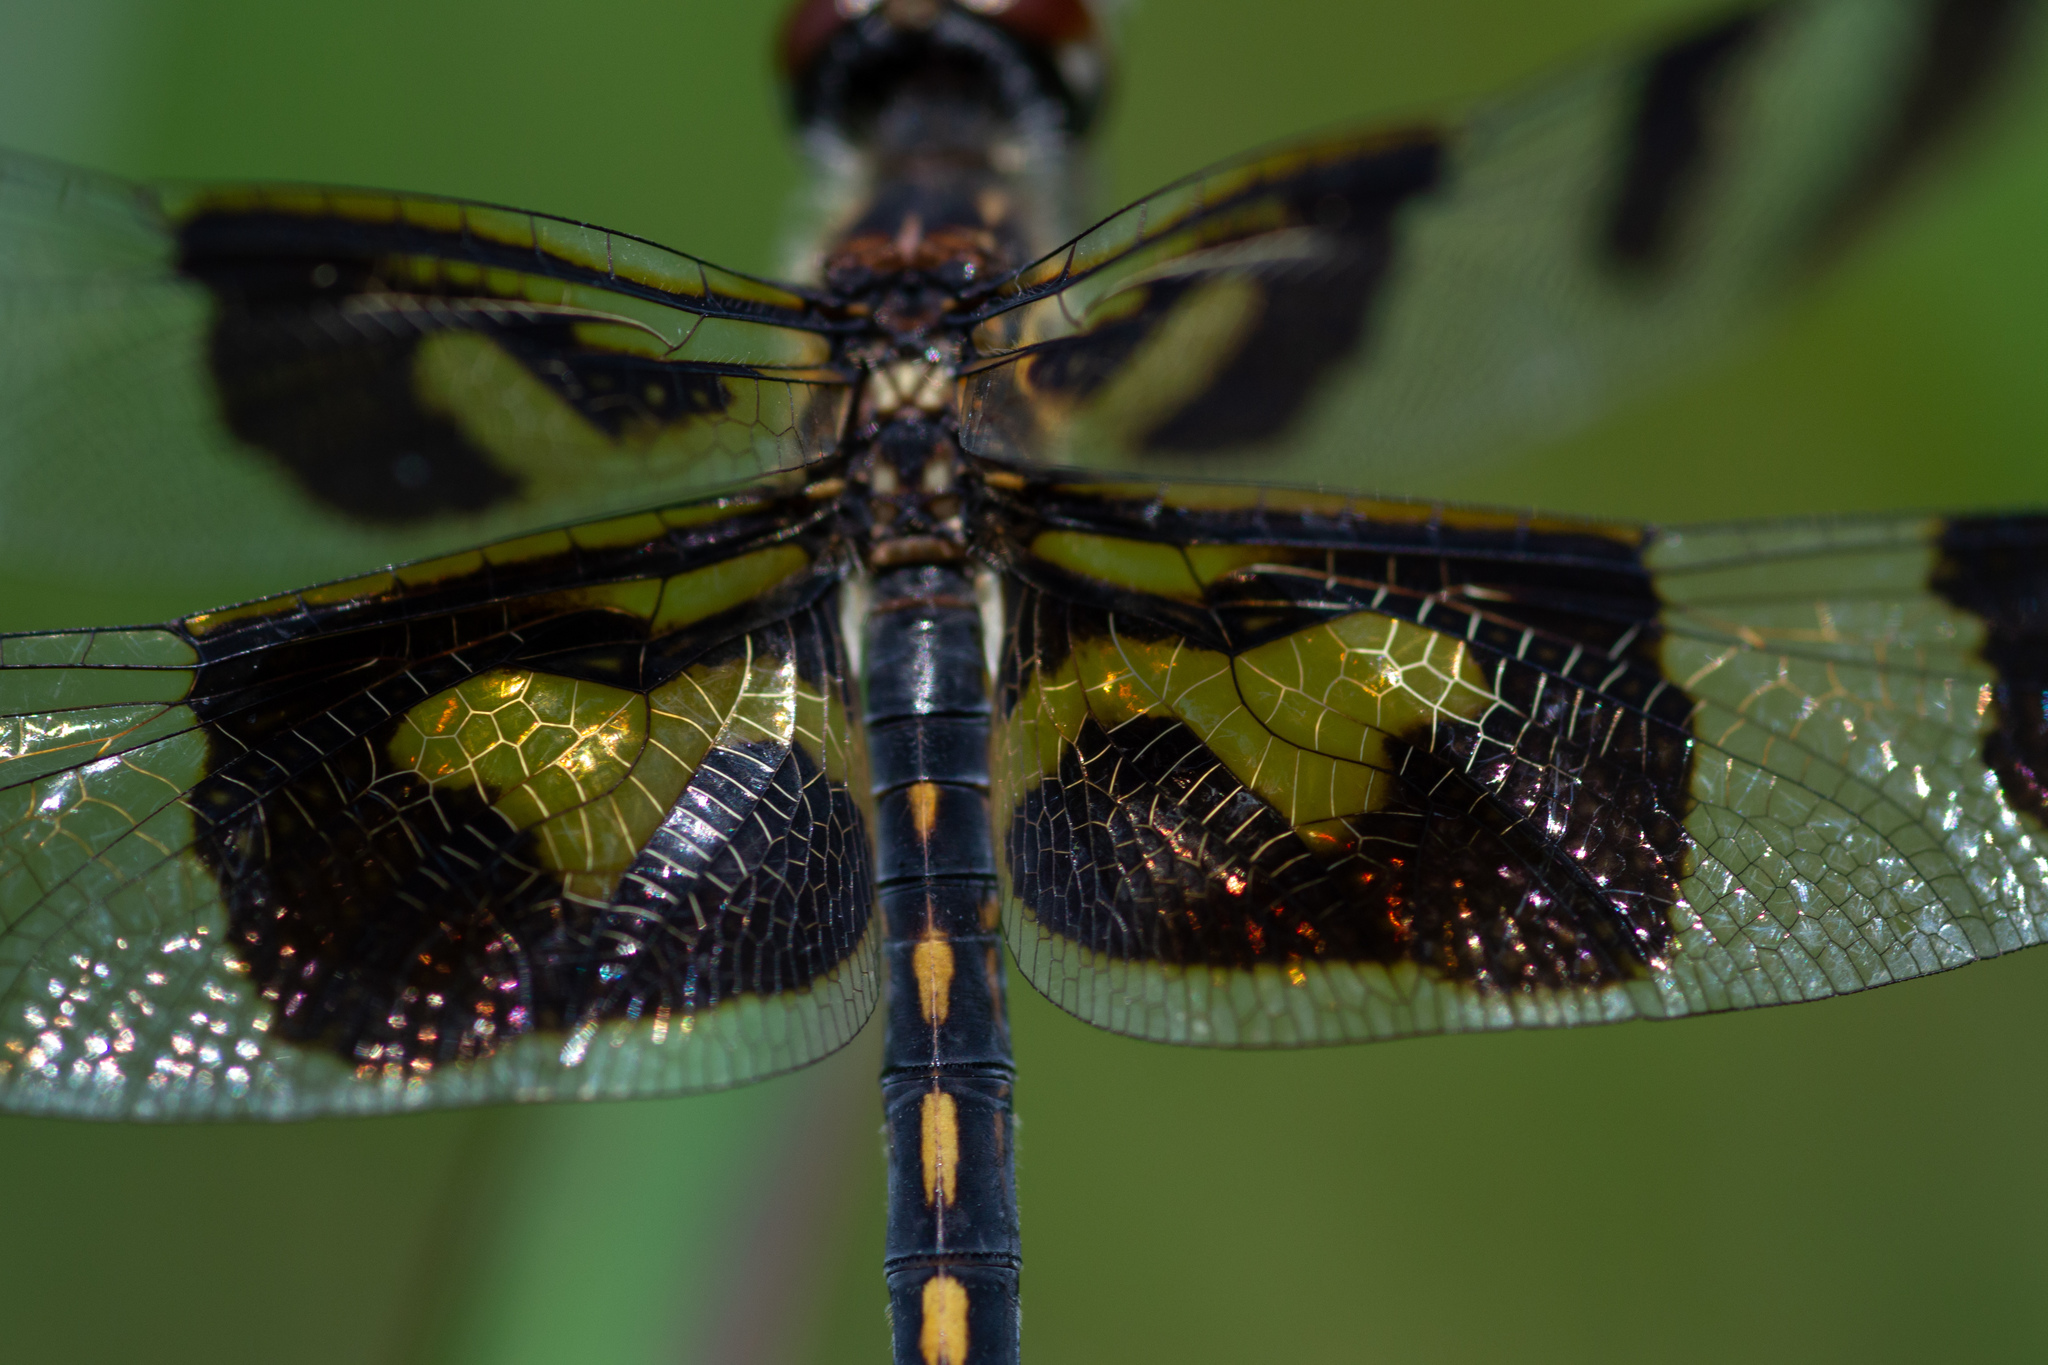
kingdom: Animalia
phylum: Arthropoda
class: Insecta
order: Odonata
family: Libellulidae
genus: Celithemis
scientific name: Celithemis fasciata
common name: Banded pennant
